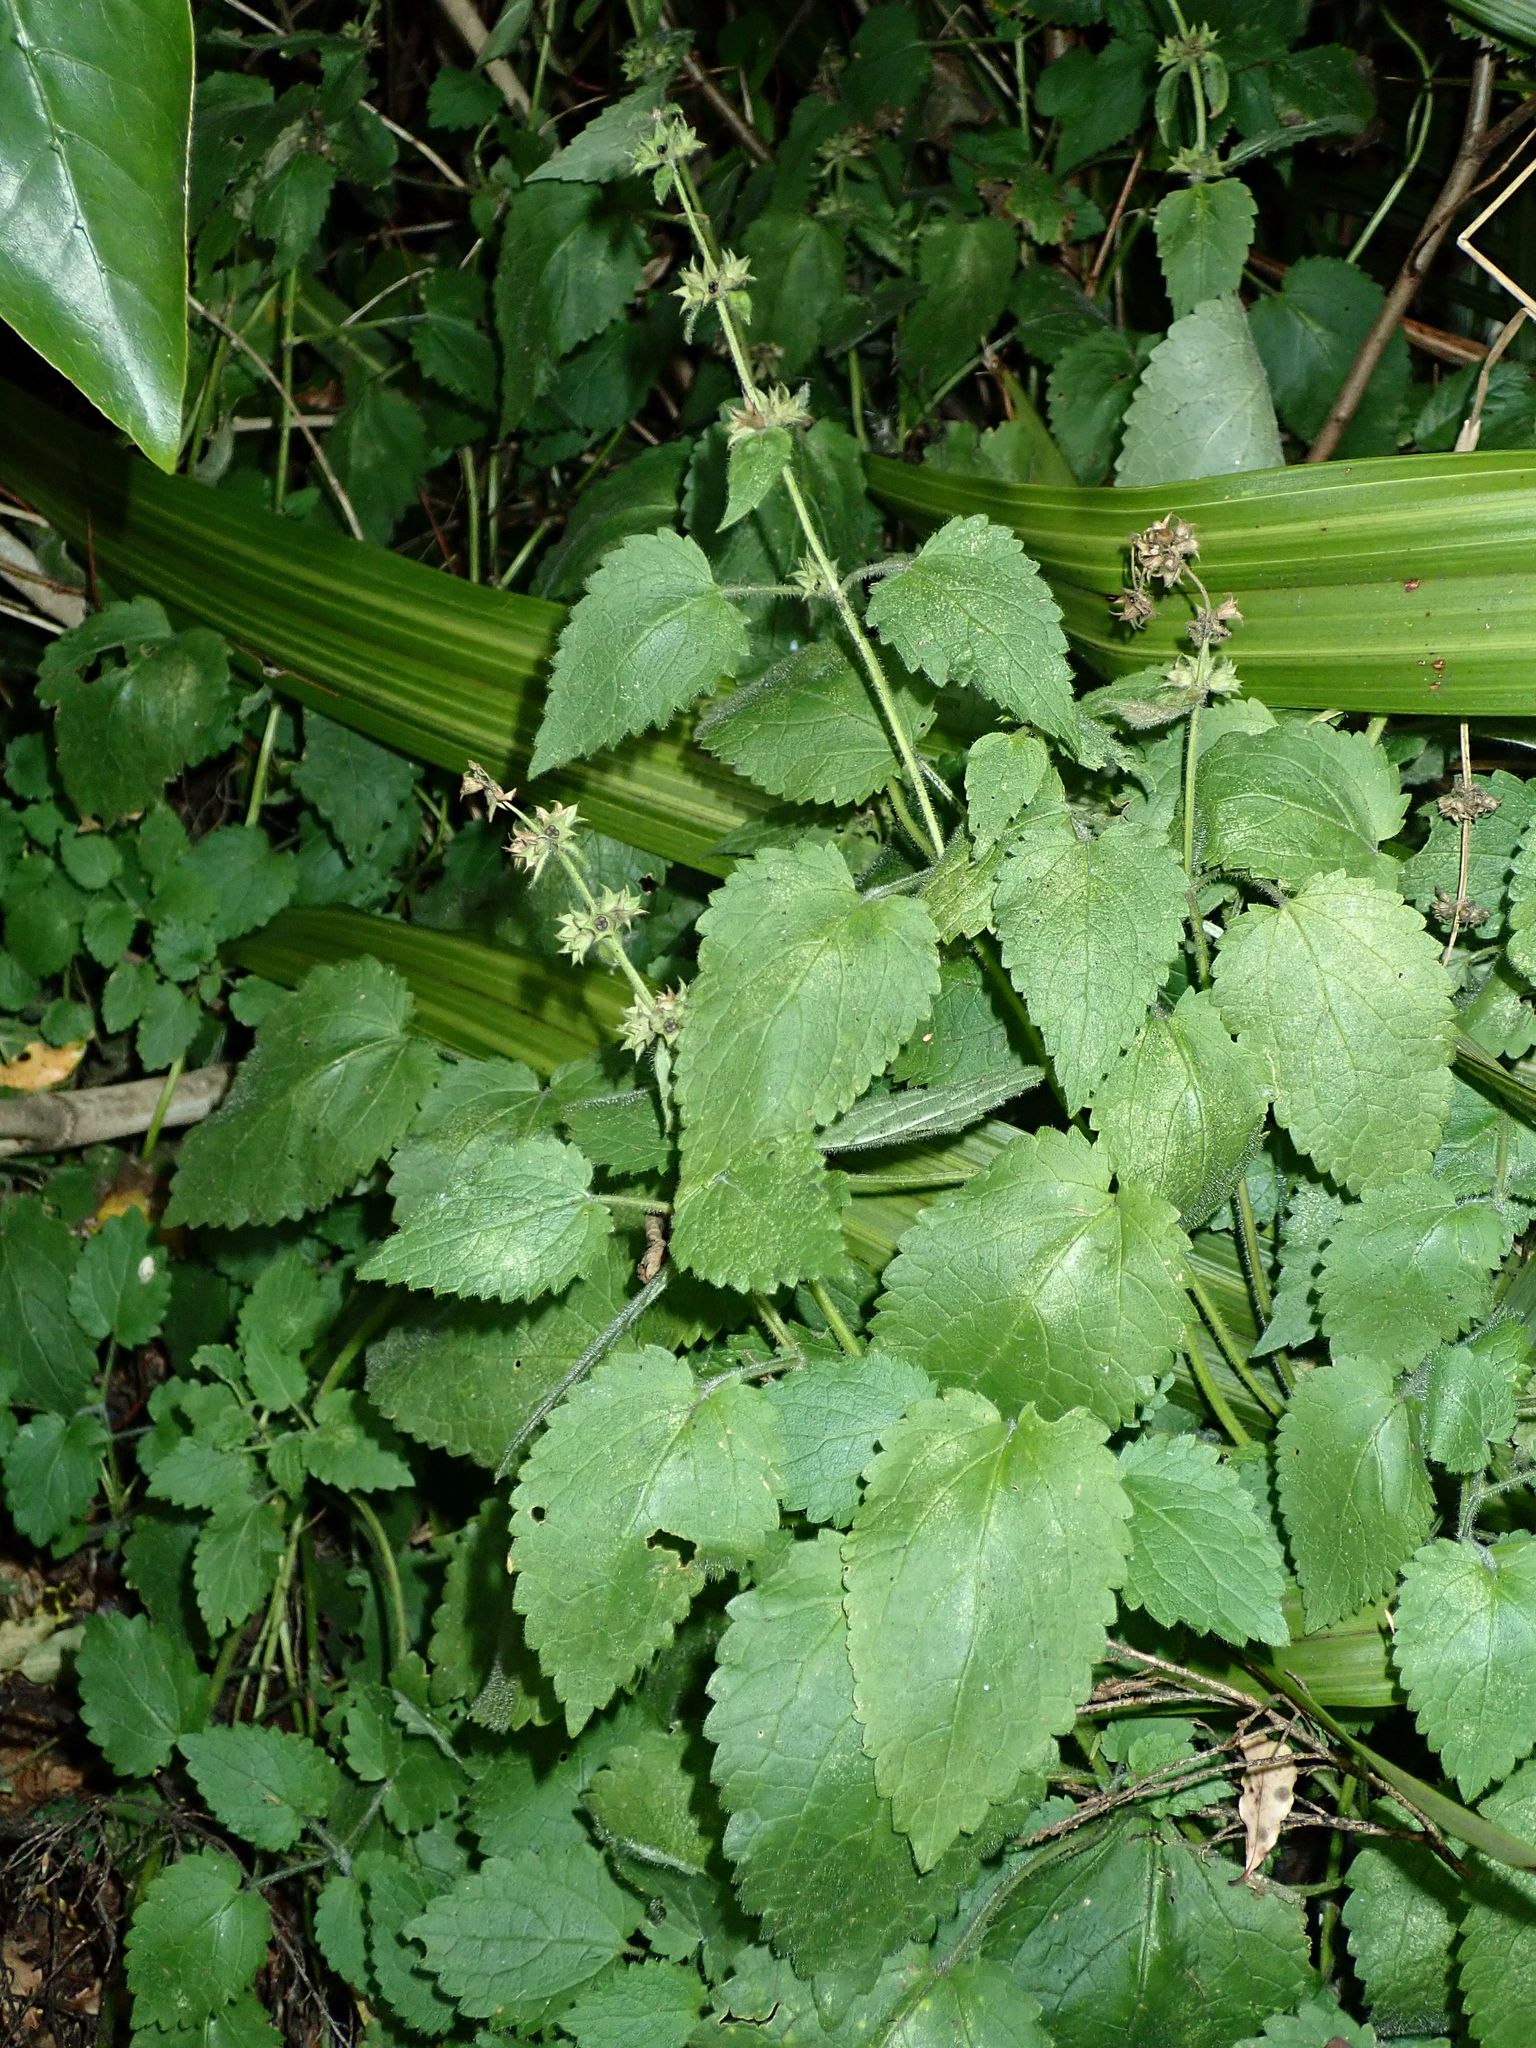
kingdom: Plantae
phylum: Tracheophyta
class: Magnoliopsida
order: Lamiales
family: Lamiaceae
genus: Stachys
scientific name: Stachys sylvatica
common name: Hedge woundwort
